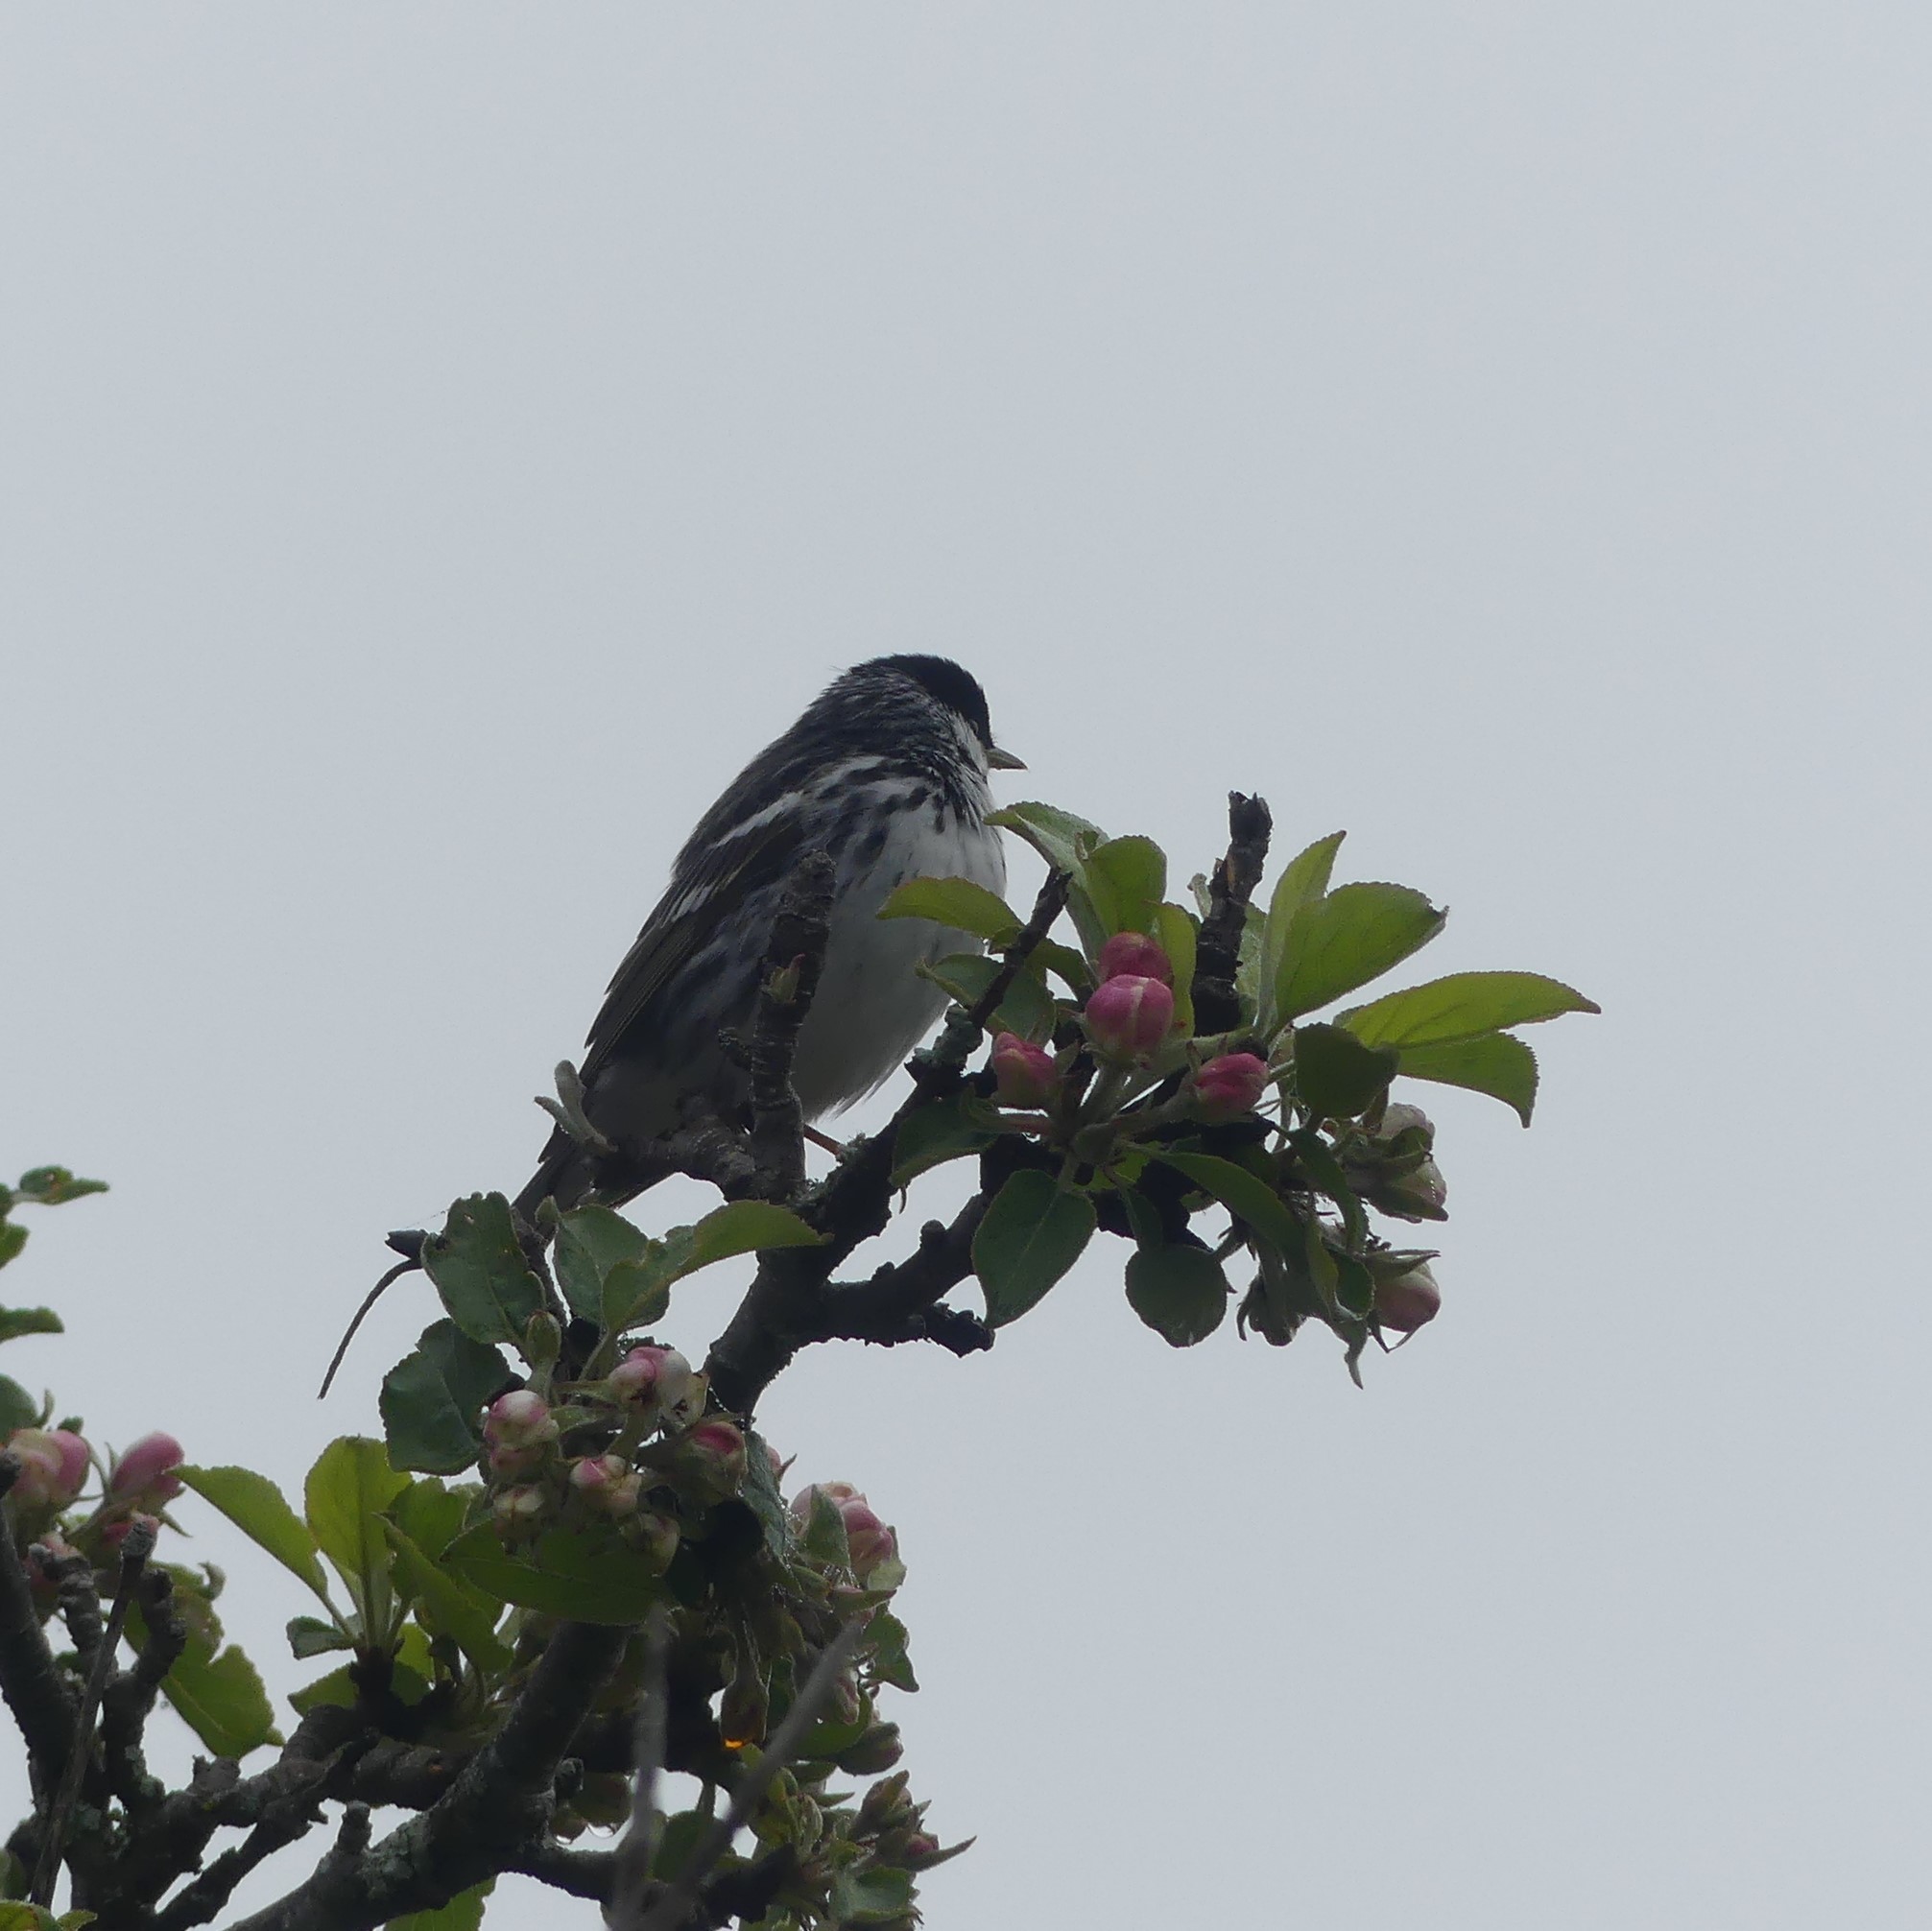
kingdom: Animalia
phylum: Chordata
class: Aves
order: Passeriformes
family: Parulidae
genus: Setophaga
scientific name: Setophaga striata
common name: Blackpoll warbler
